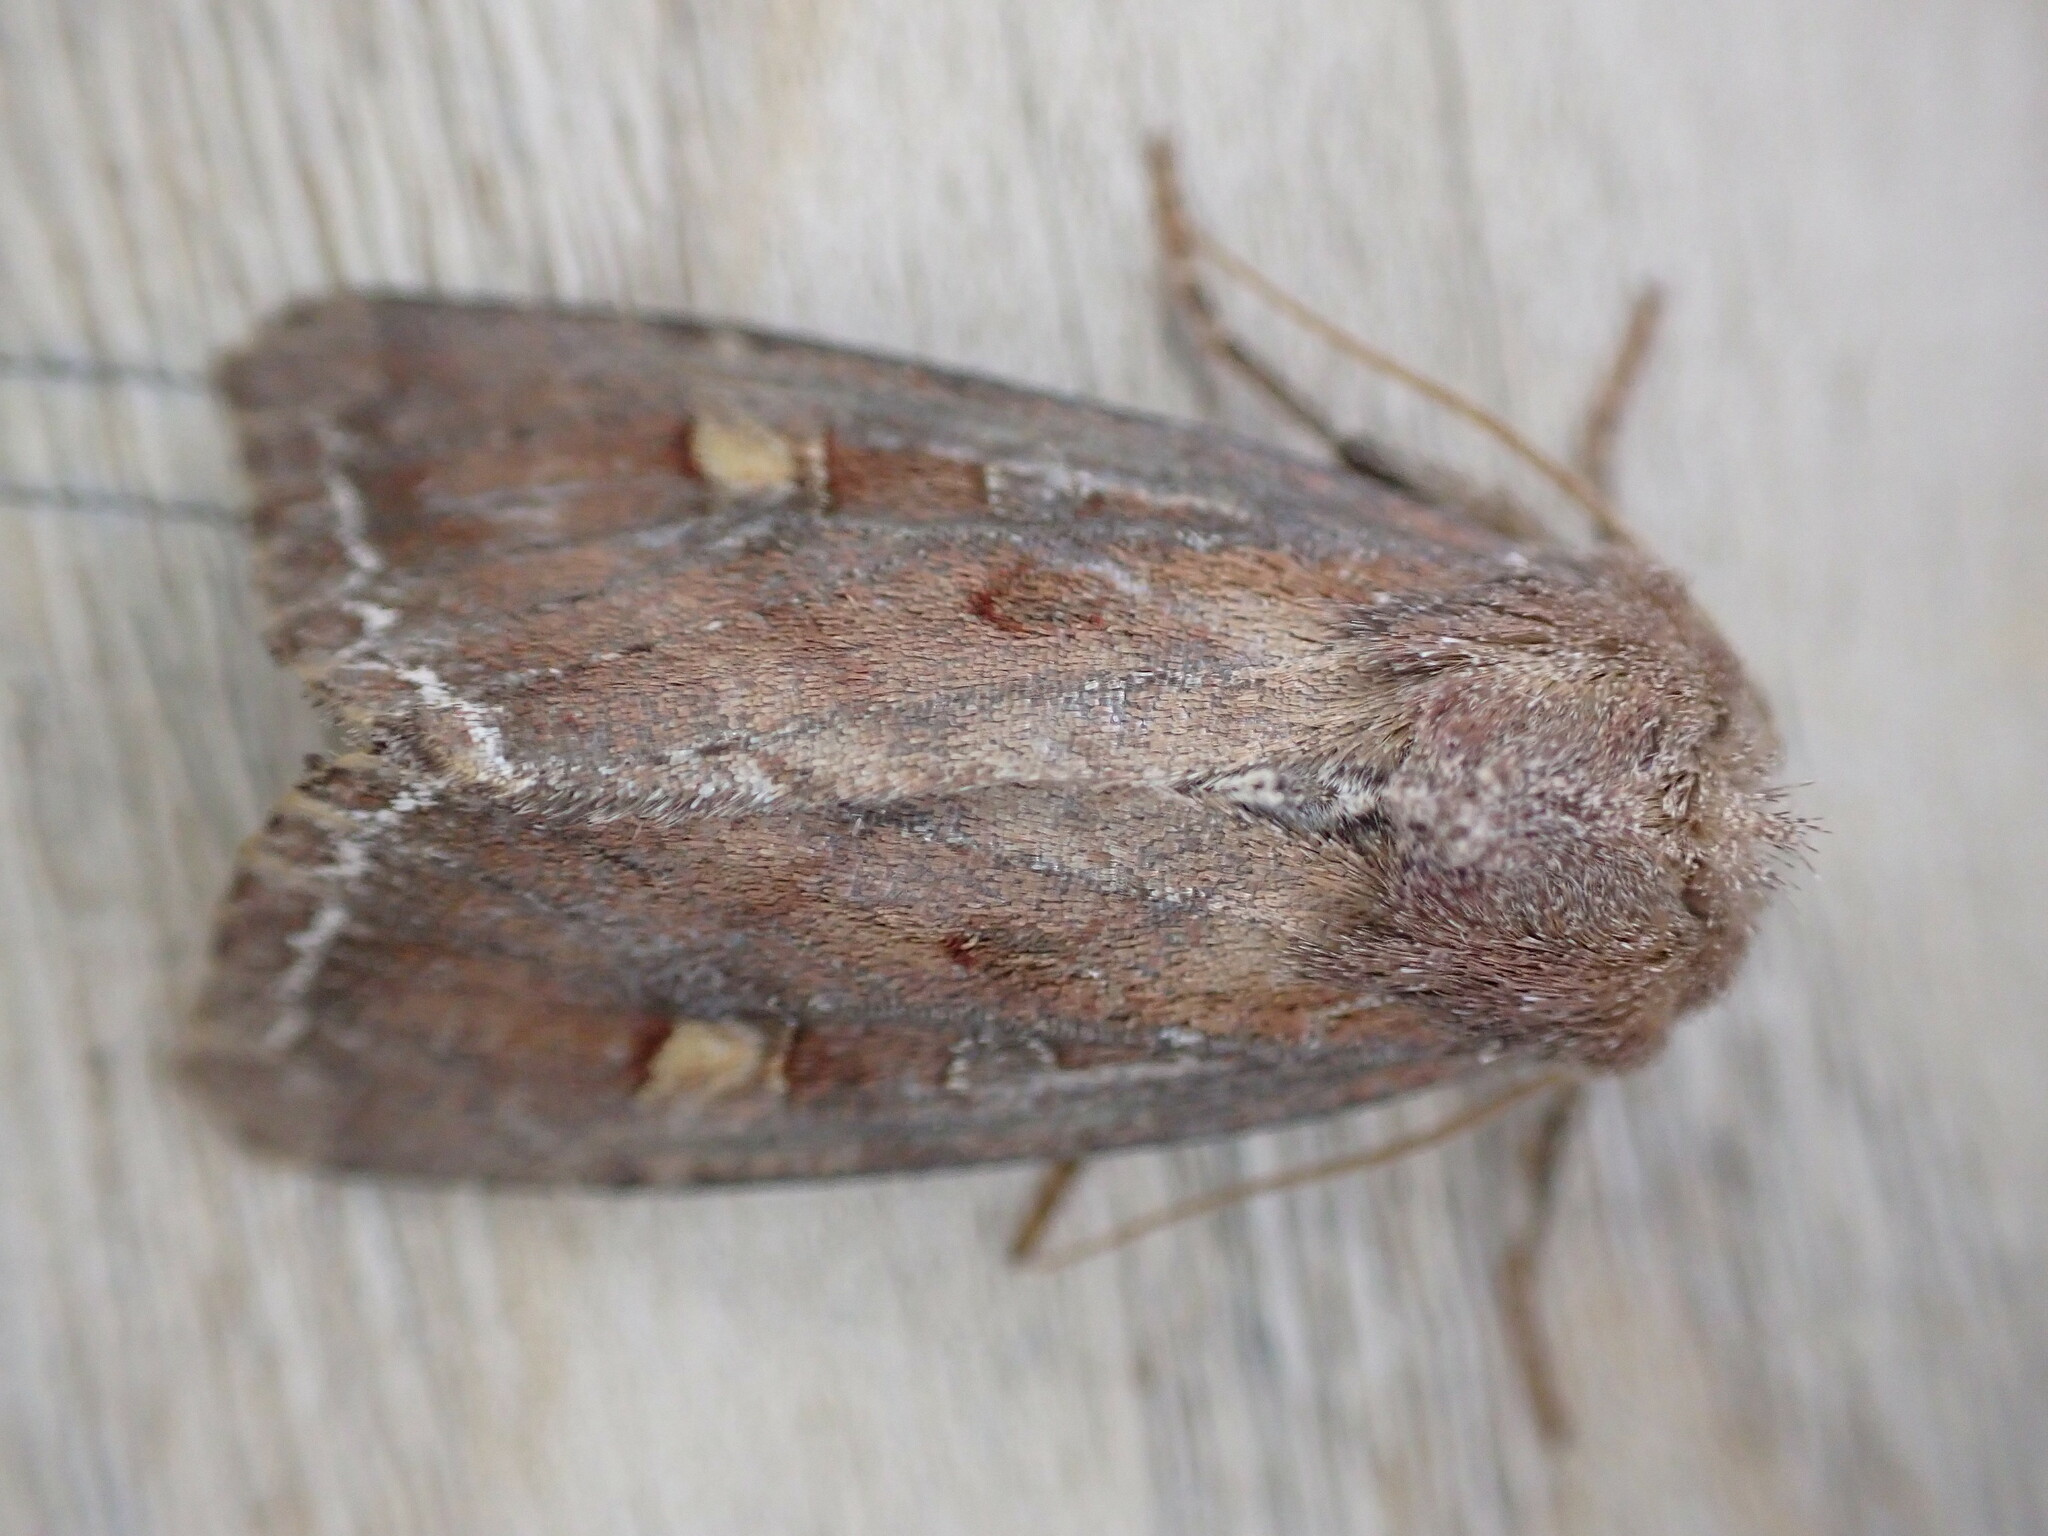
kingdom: Animalia
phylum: Arthropoda
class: Insecta
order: Lepidoptera
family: Noctuidae
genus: Lacanobia
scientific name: Lacanobia oleracea
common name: Bright-line brown-eye
